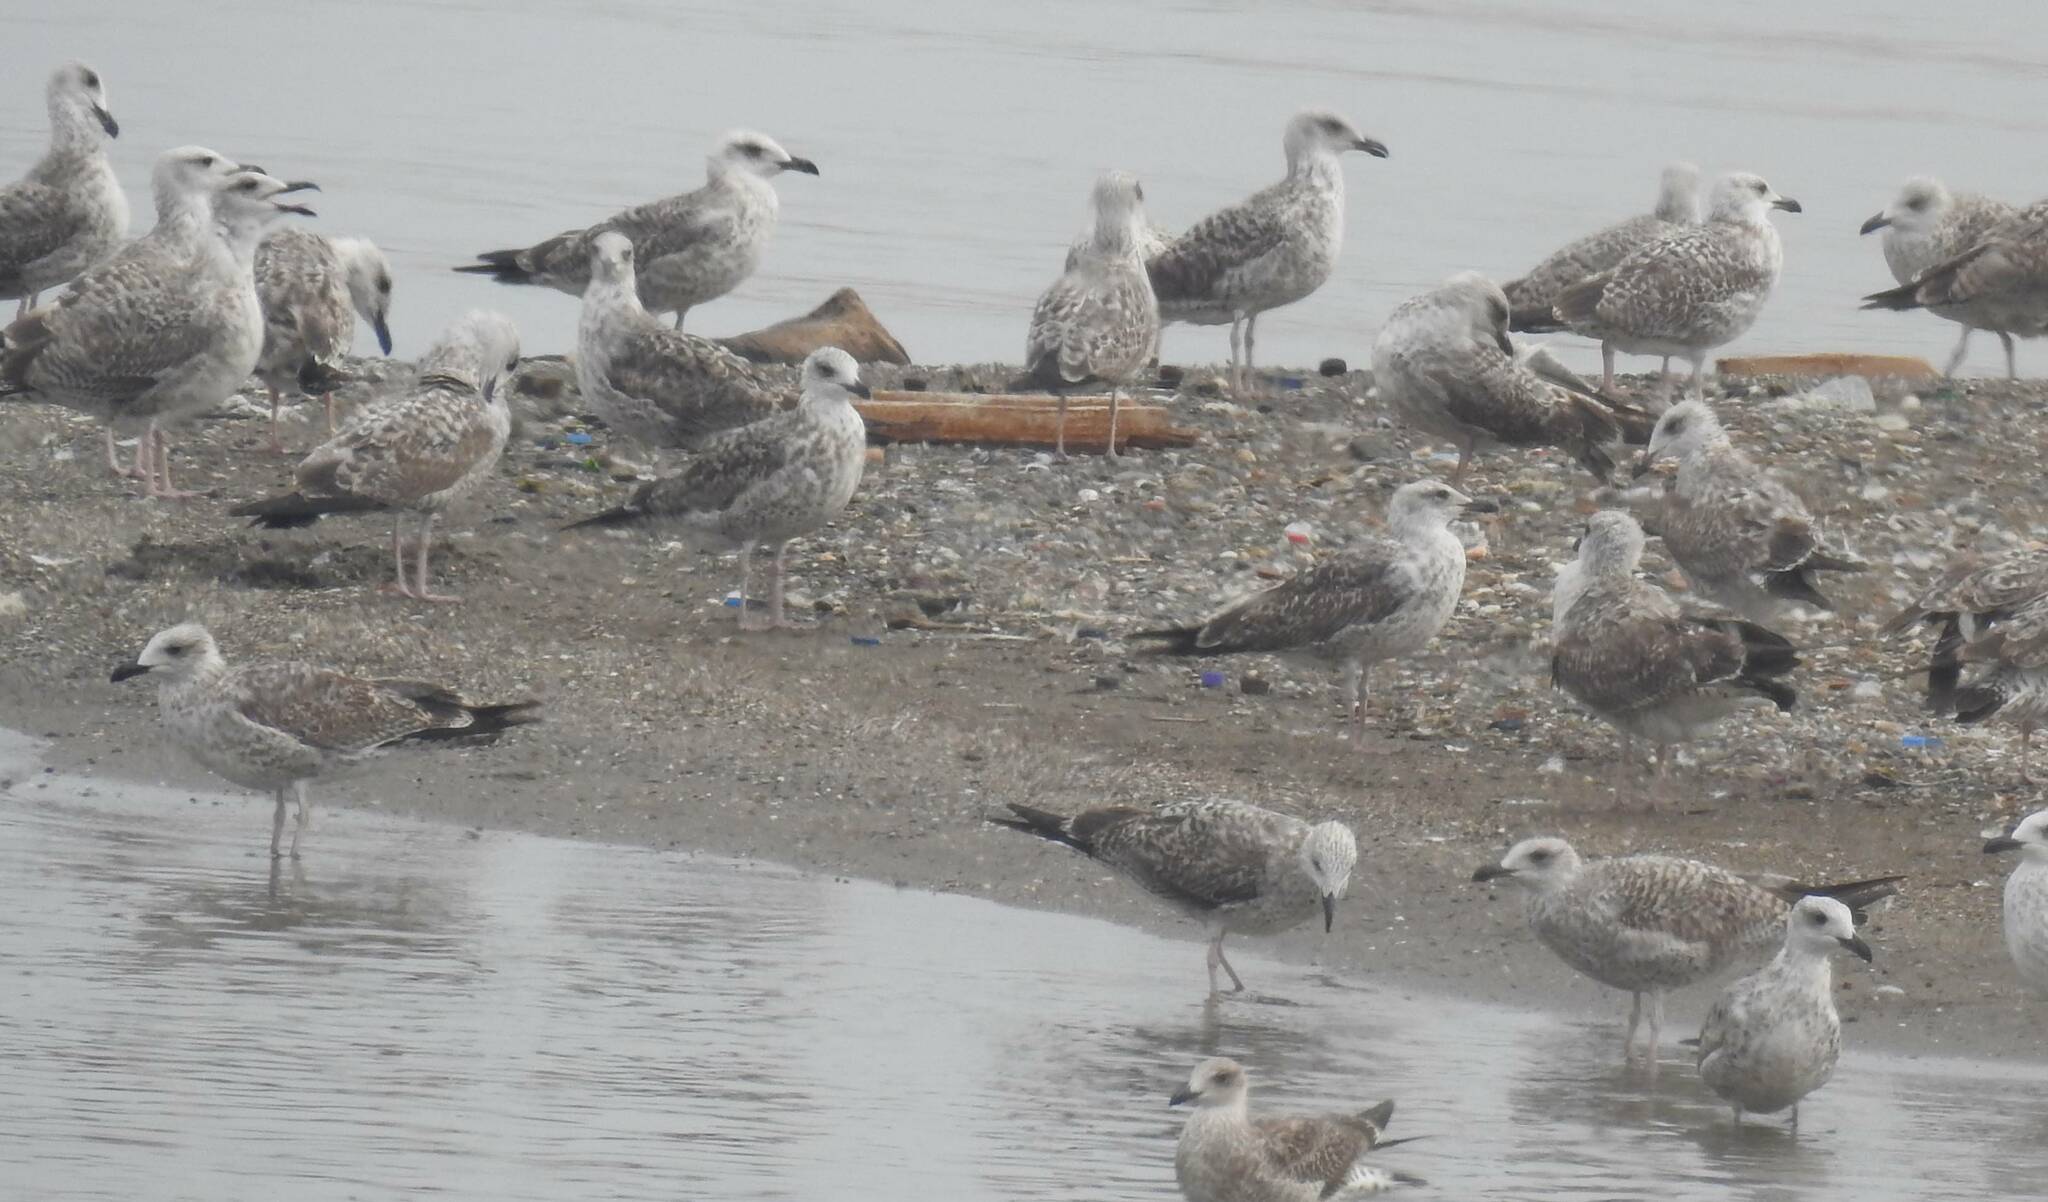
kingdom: Animalia
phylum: Chordata
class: Aves
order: Charadriiformes
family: Laridae
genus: Larus
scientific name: Larus michahellis
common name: Yellow-legged gull
